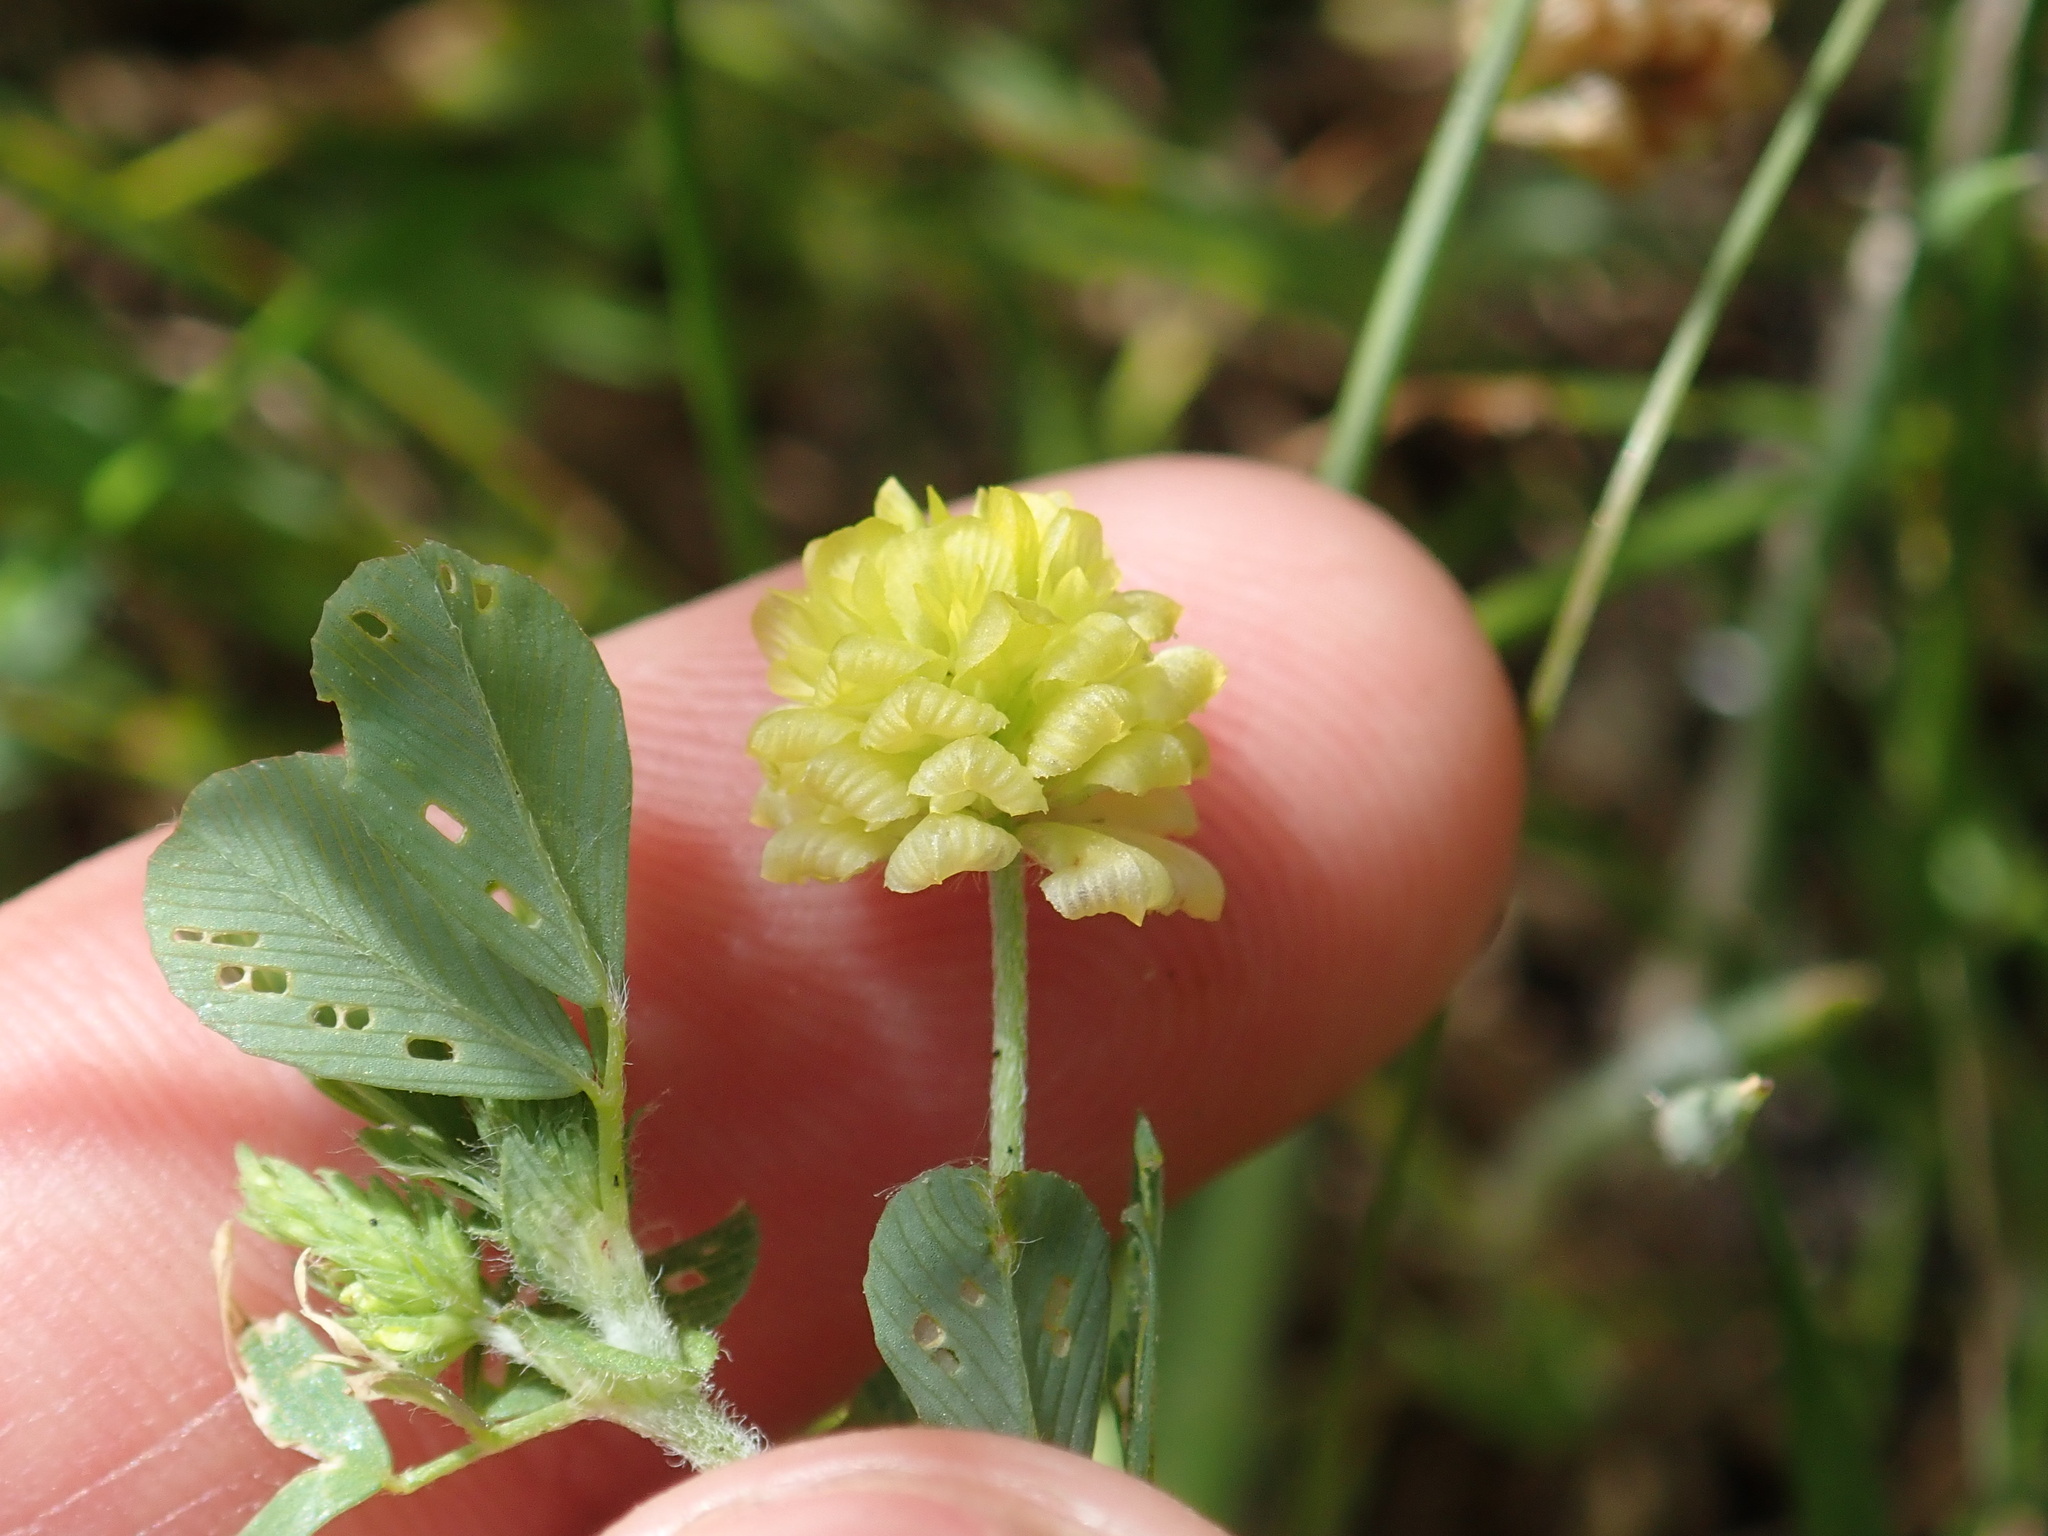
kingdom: Plantae
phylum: Tracheophyta
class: Magnoliopsida
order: Fabales
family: Fabaceae
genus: Trifolium
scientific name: Trifolium campestre
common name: Field clover
